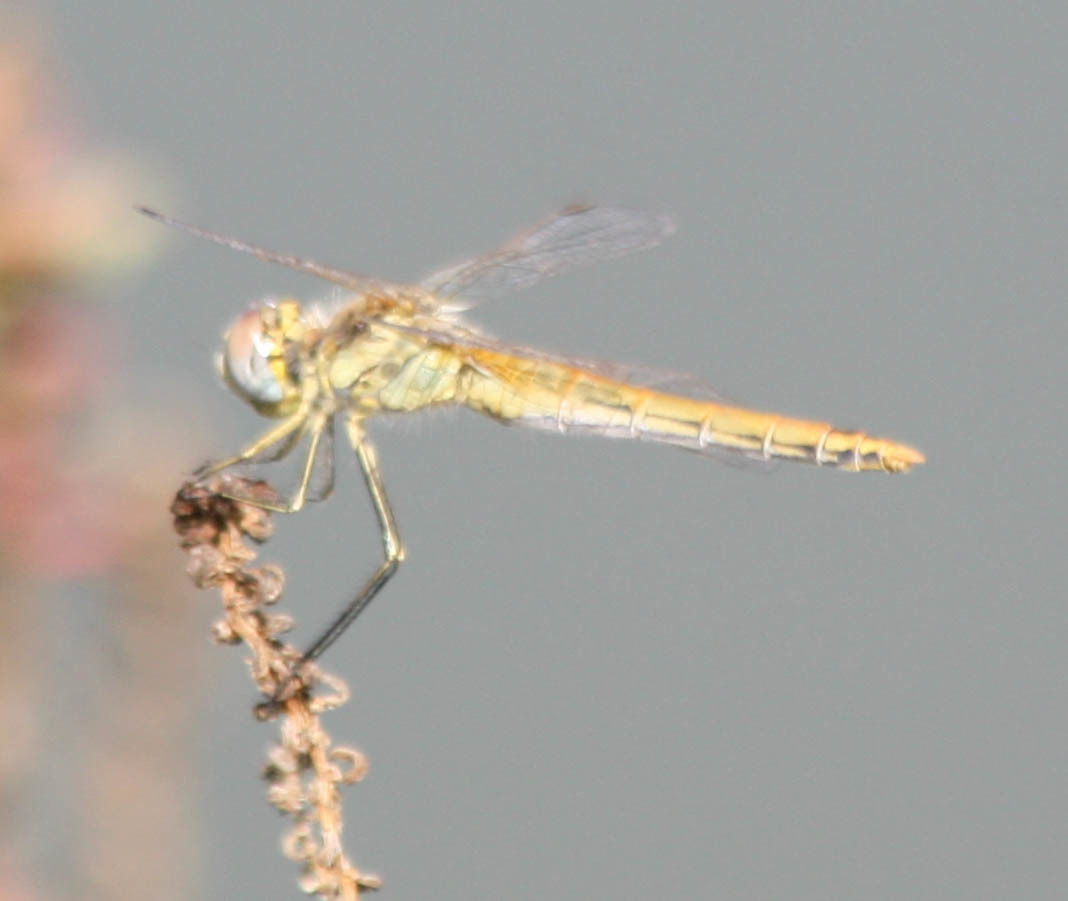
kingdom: Animalia
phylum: Arthropoda
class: Insecta
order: Odonata
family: Libellulidae
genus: Sympetrum
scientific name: Sympetrum fonscolombii
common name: Red-veined darter
